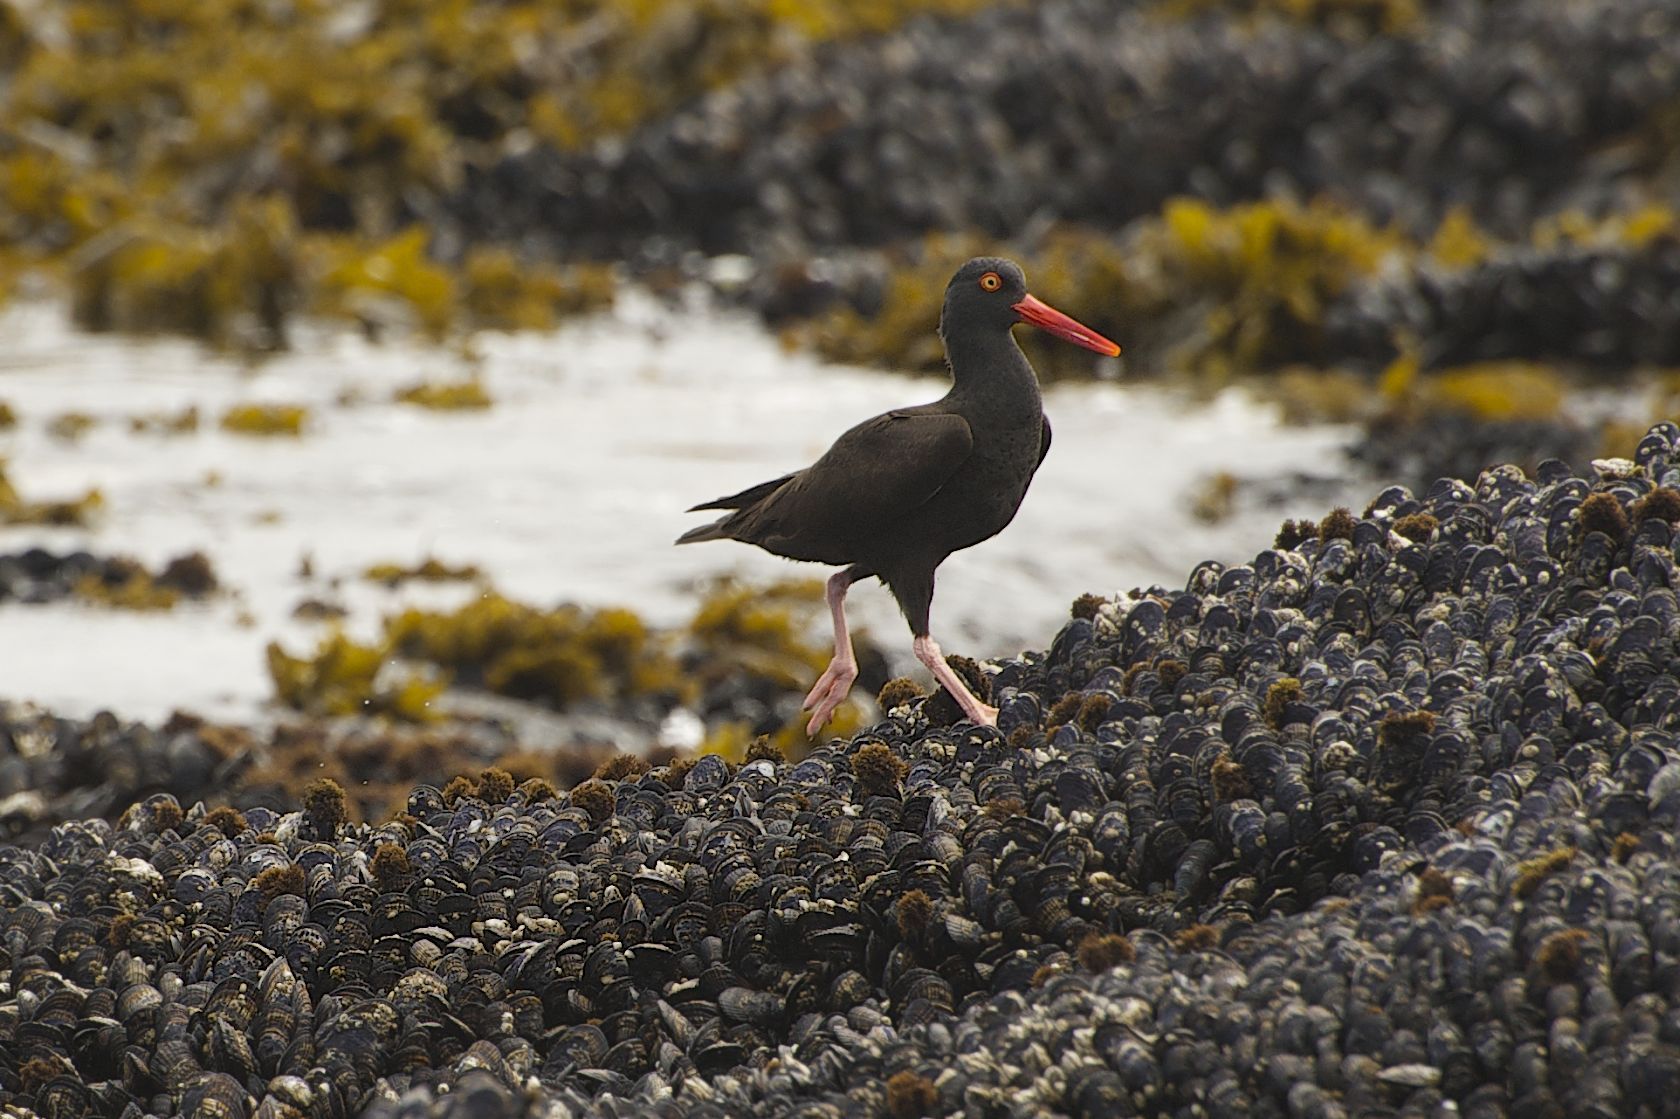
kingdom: Animalia
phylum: Chordata
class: Aves
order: Charadriiformes
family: Haematopodidae
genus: Haematopus
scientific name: Haematopus bachmani
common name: Black oystercatcher
